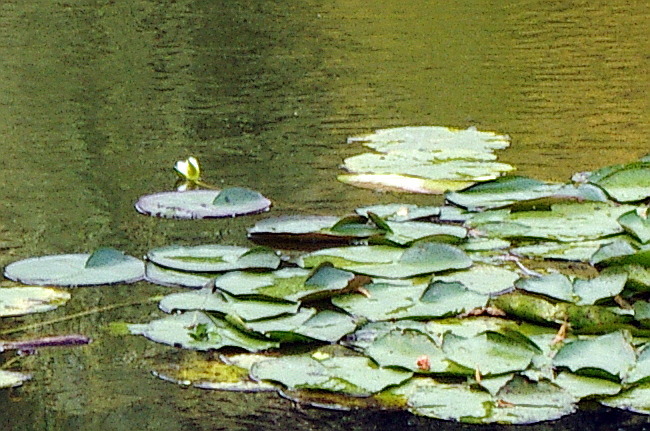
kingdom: Plantae
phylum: Tracheophyta
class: Magnoliopsida
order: Nymphaeales
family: Nymphaeaceae
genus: Nymphaea
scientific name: Nymphaea candida
